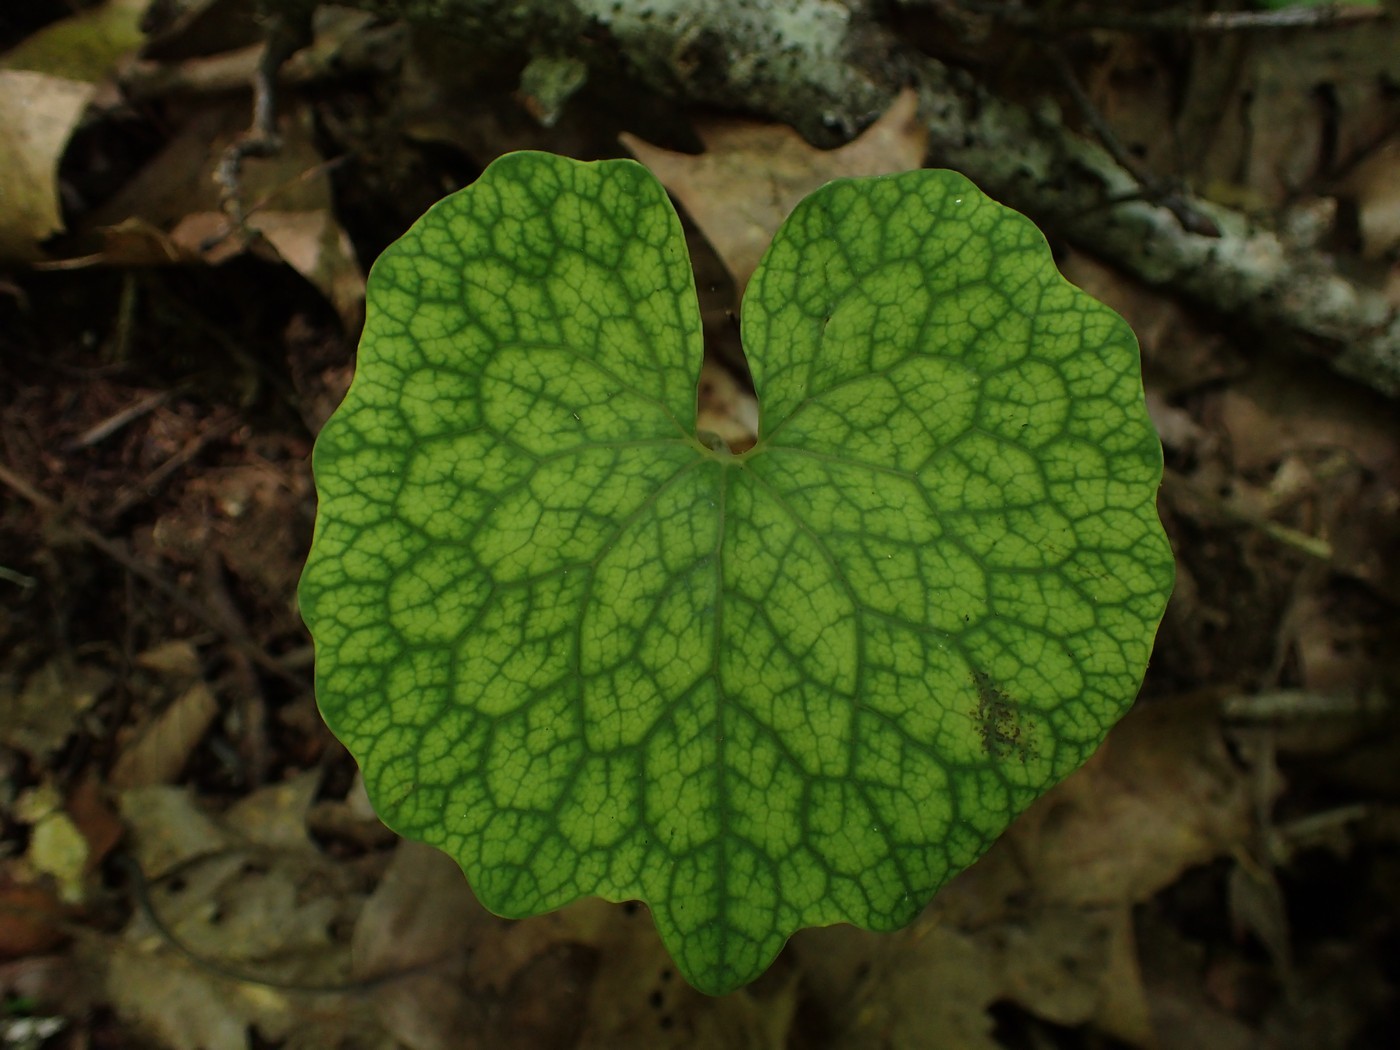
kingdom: Plantae
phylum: Tracheophyta
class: Magnoliopsida
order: Ranunculales
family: Papaveraceae
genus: Sanguinaria
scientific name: Sanguinaria canadensis
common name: Bloodroot
